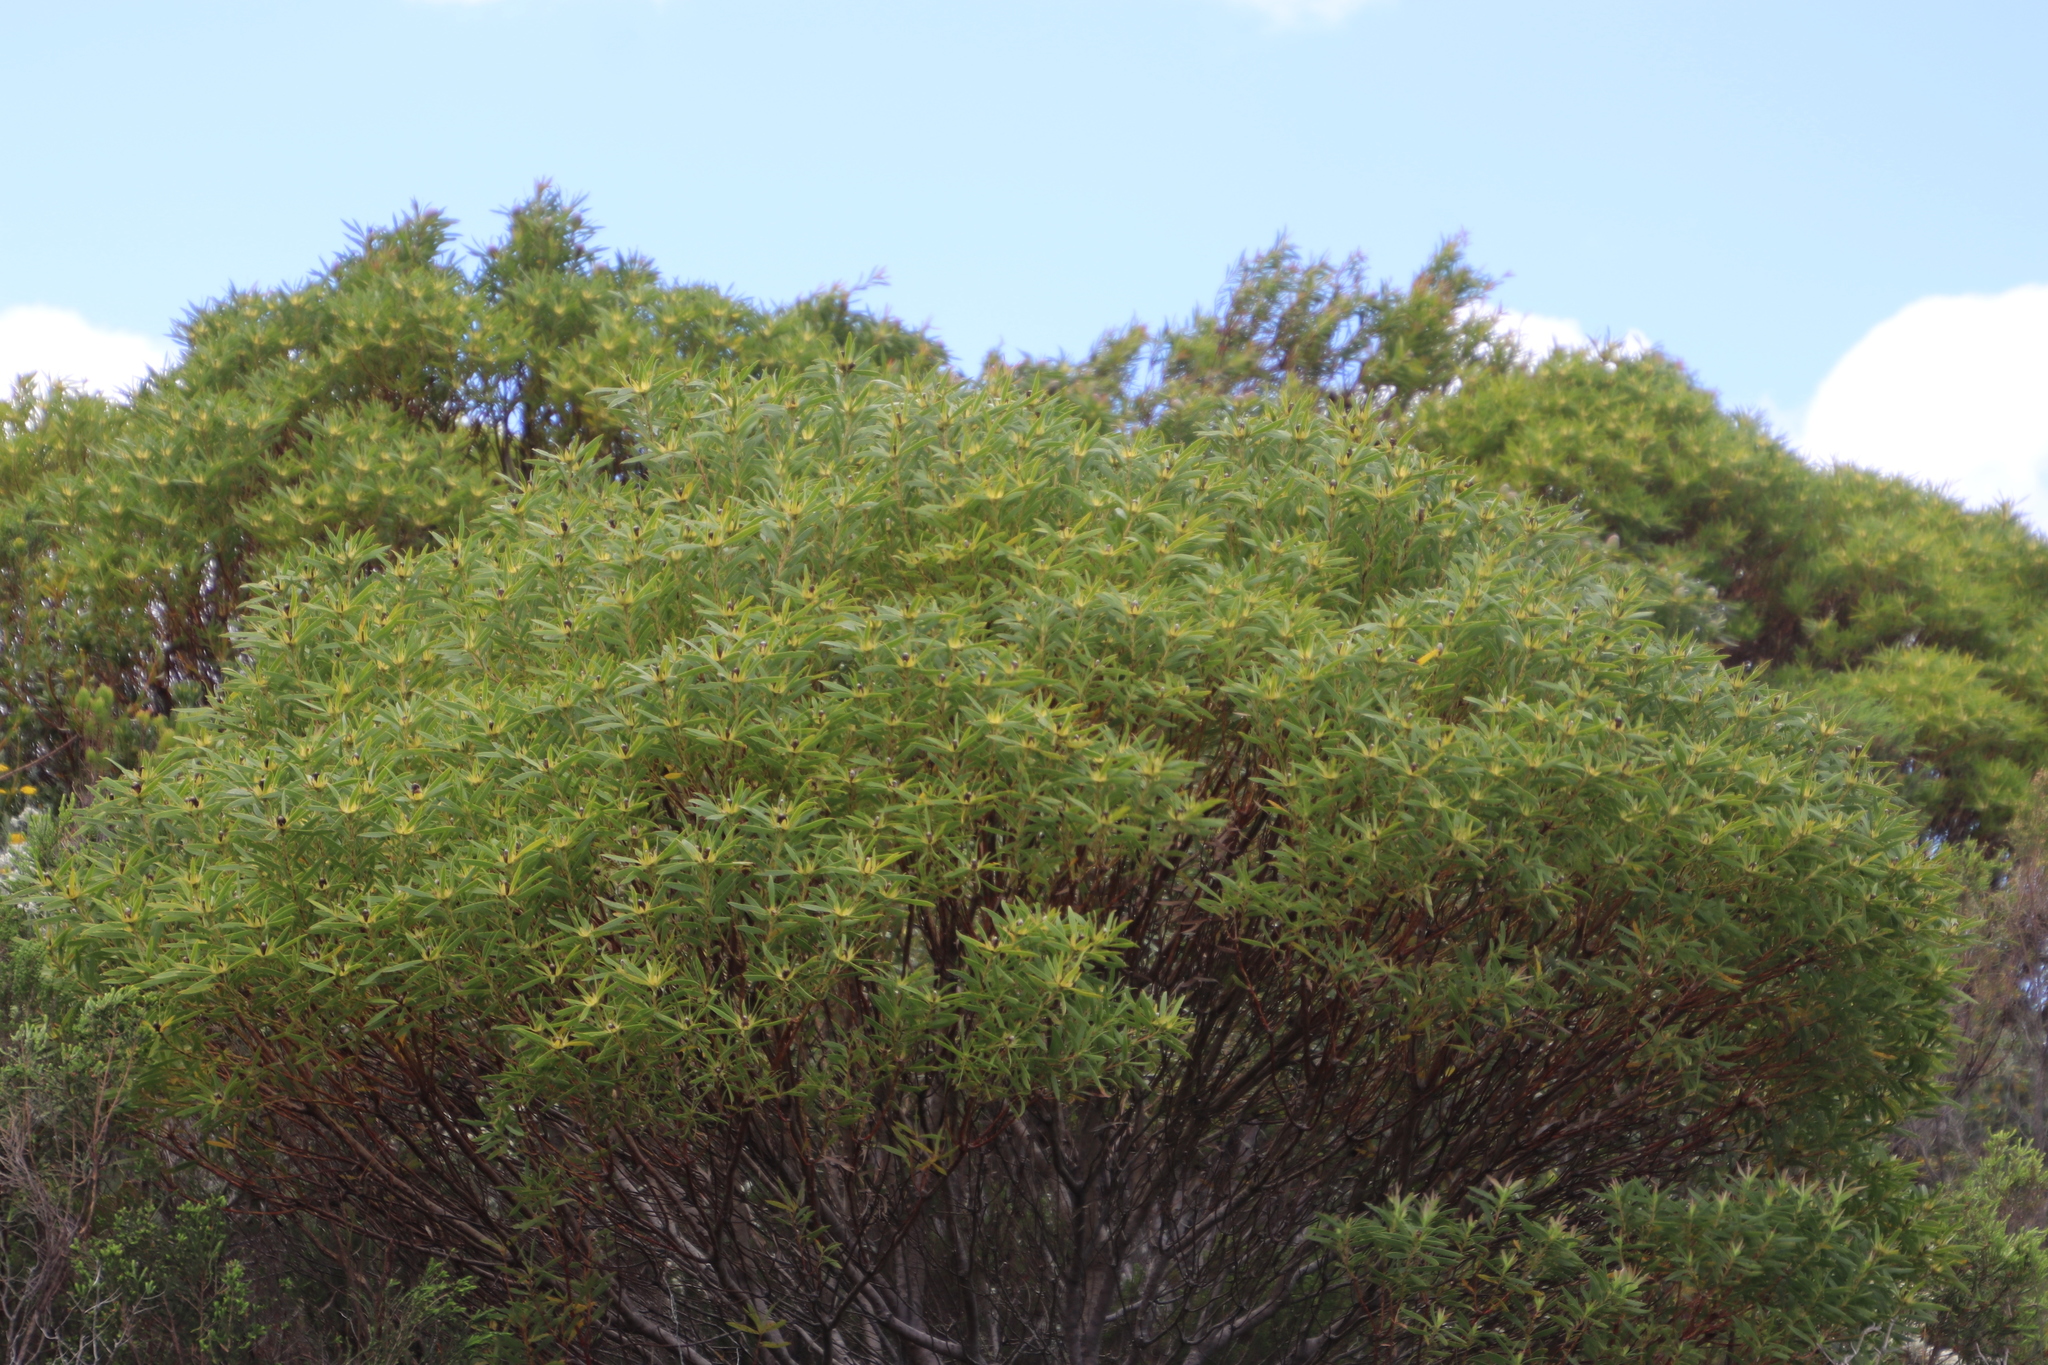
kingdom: Plantae
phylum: Tracheophyta
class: Magnoliopsida
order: Proteales
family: Proteaceae
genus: Leucadendron
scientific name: Leucadendron coniferum
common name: Dune conebush
